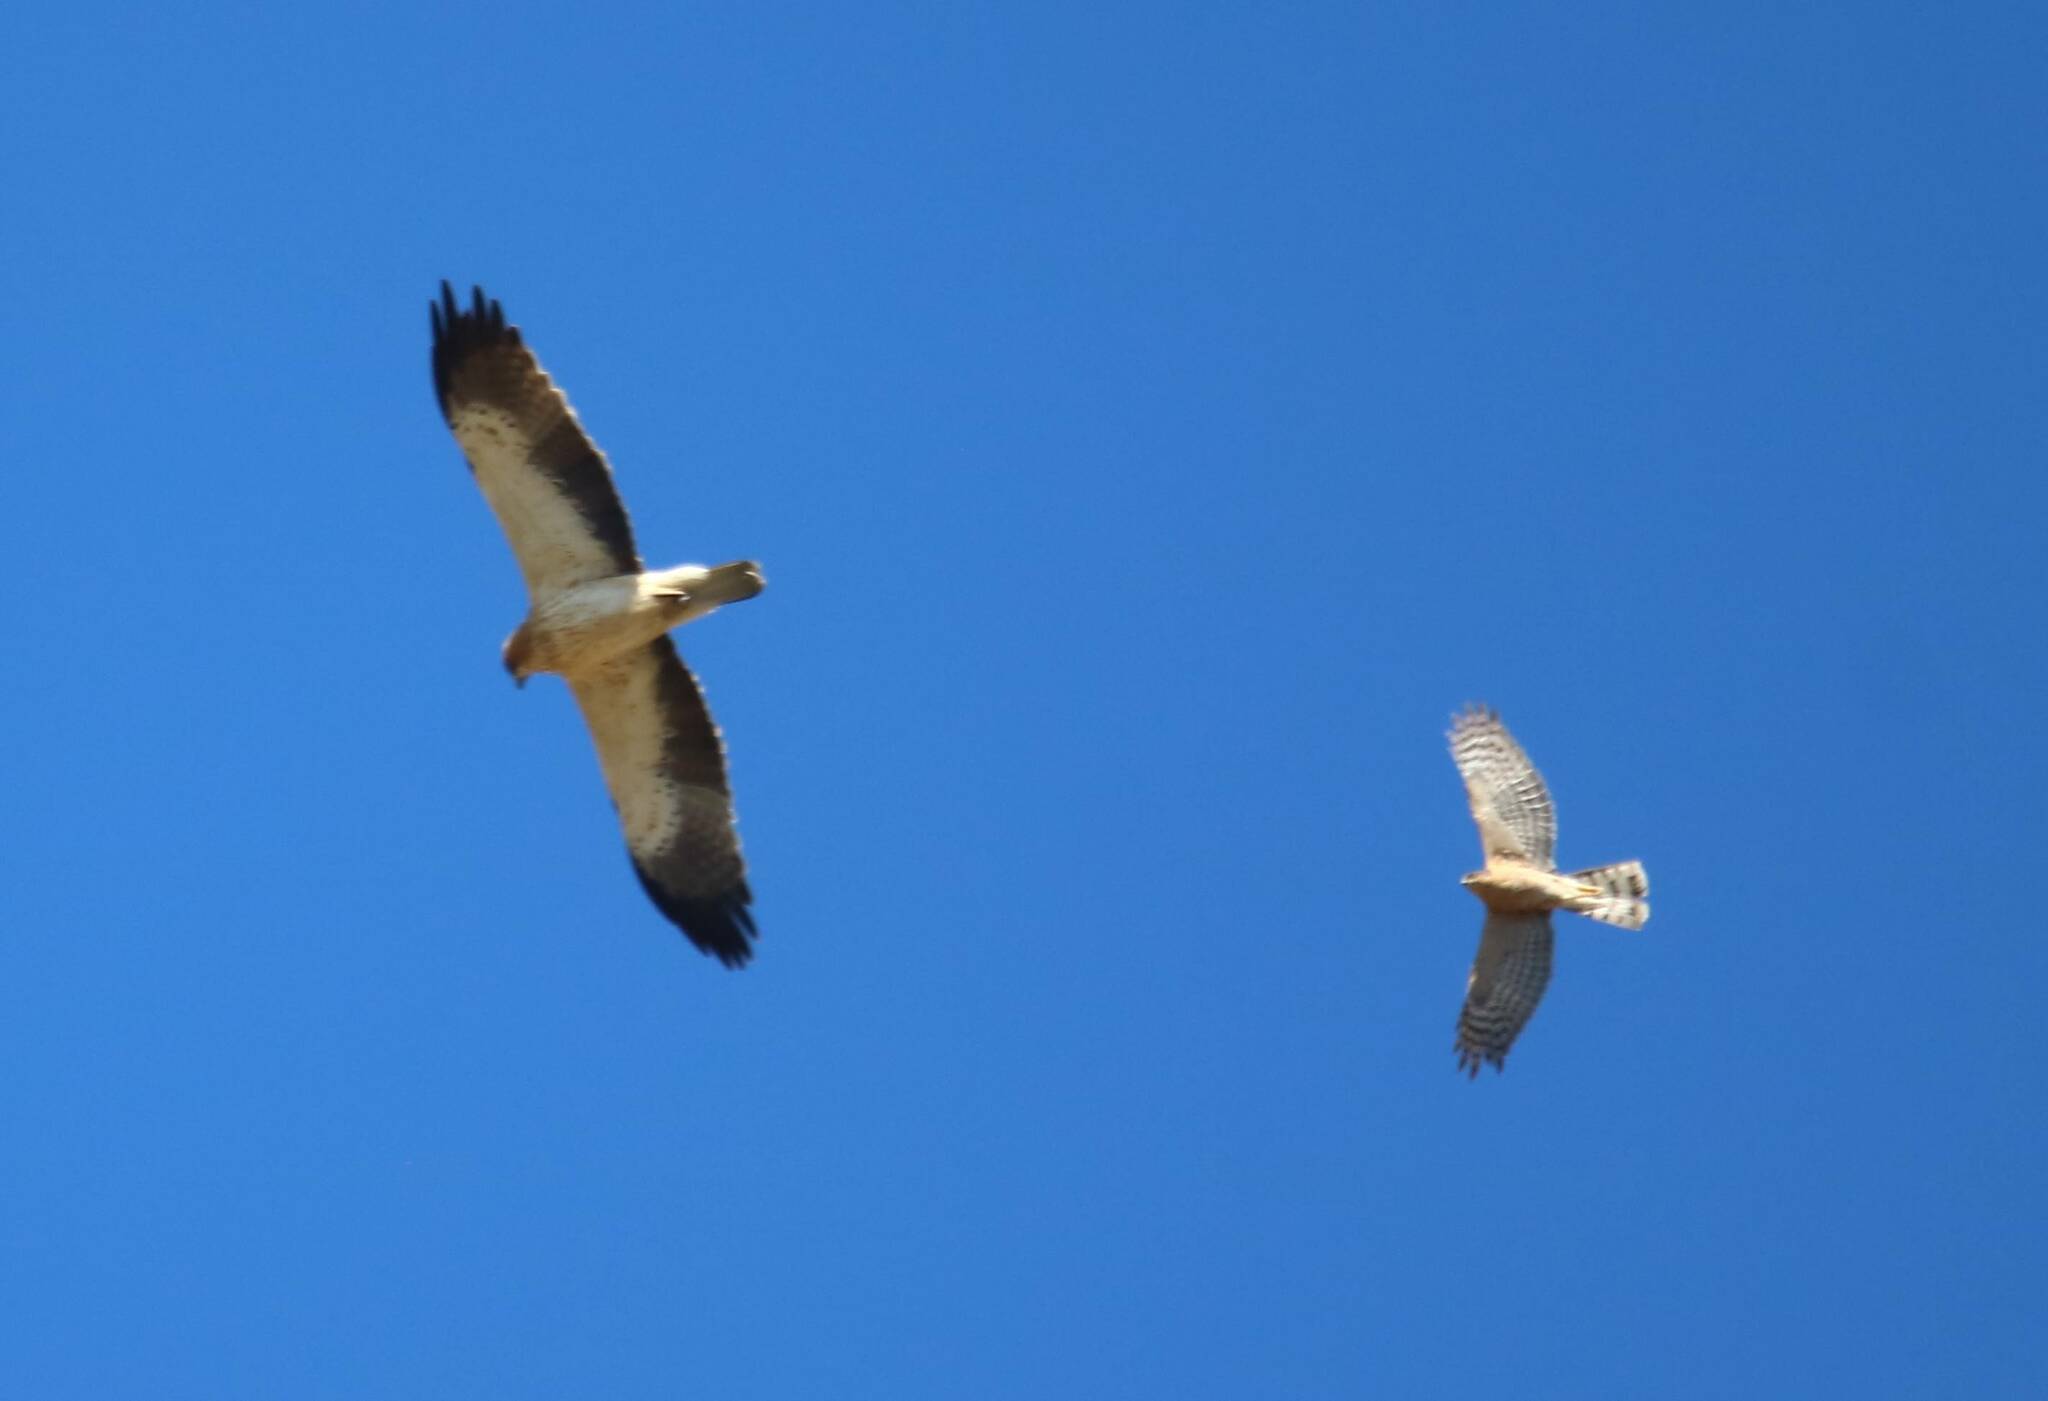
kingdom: Animalia
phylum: Chordata
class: Aves
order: Accipitriformes
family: Accipitridae
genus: Accipiter
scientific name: Accipiter nisus
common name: Eurasian sparrowhawk
